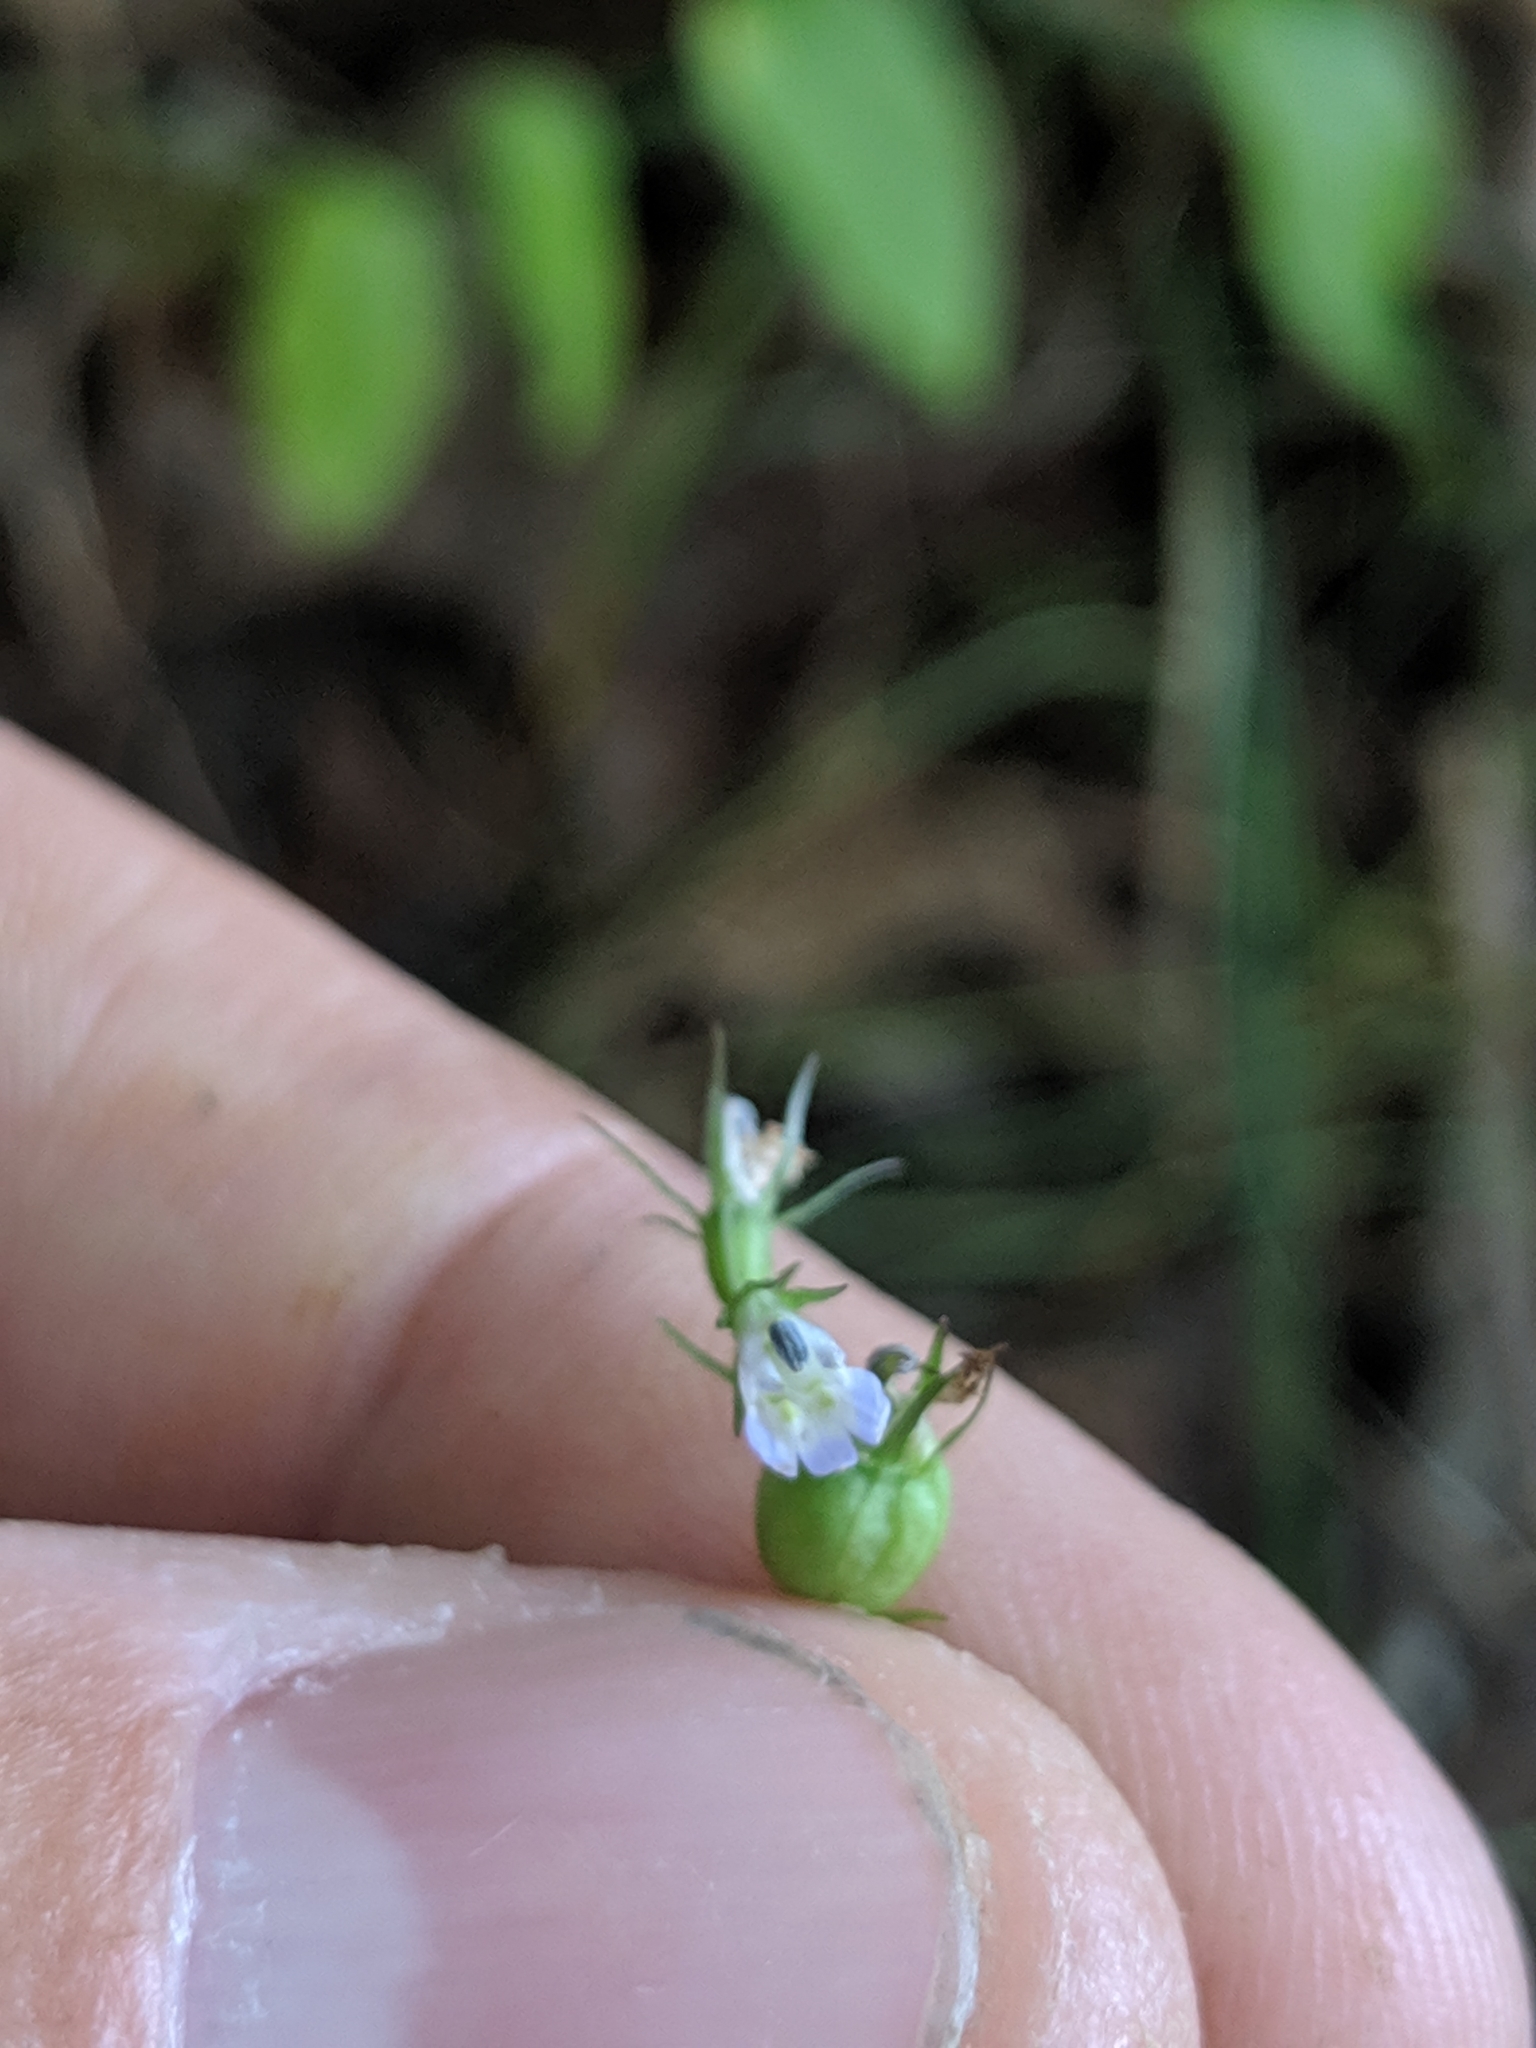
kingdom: Plantae
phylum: Tracheophyta
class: Magnoliopsida
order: Asterales
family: Campanulaceae
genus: Lobelia
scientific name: Lobelia inflata
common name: Indian tobacco
